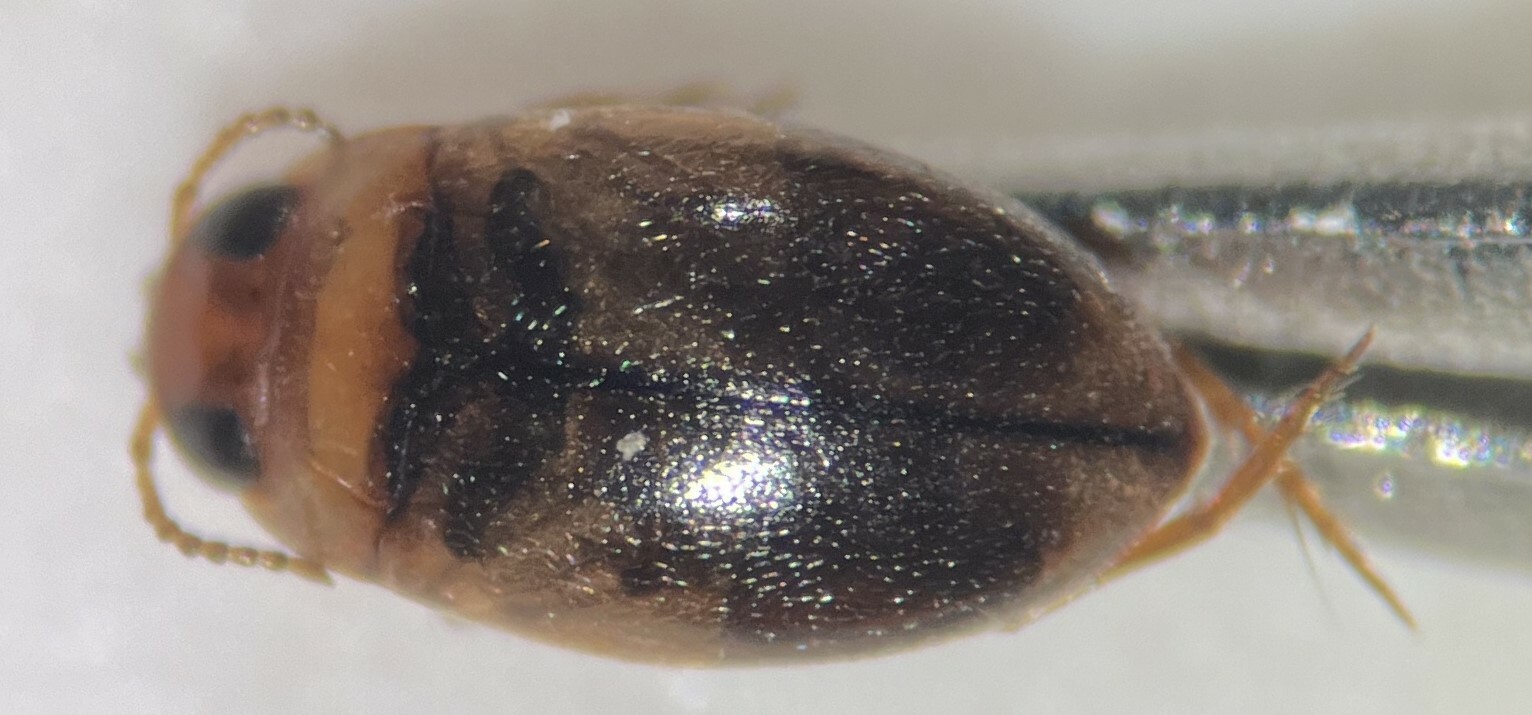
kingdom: Animalia
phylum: Arthropoda
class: Insecta
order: Coleoptera
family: Dytiscidae
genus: Uvarus
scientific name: Uvarus lacustris
